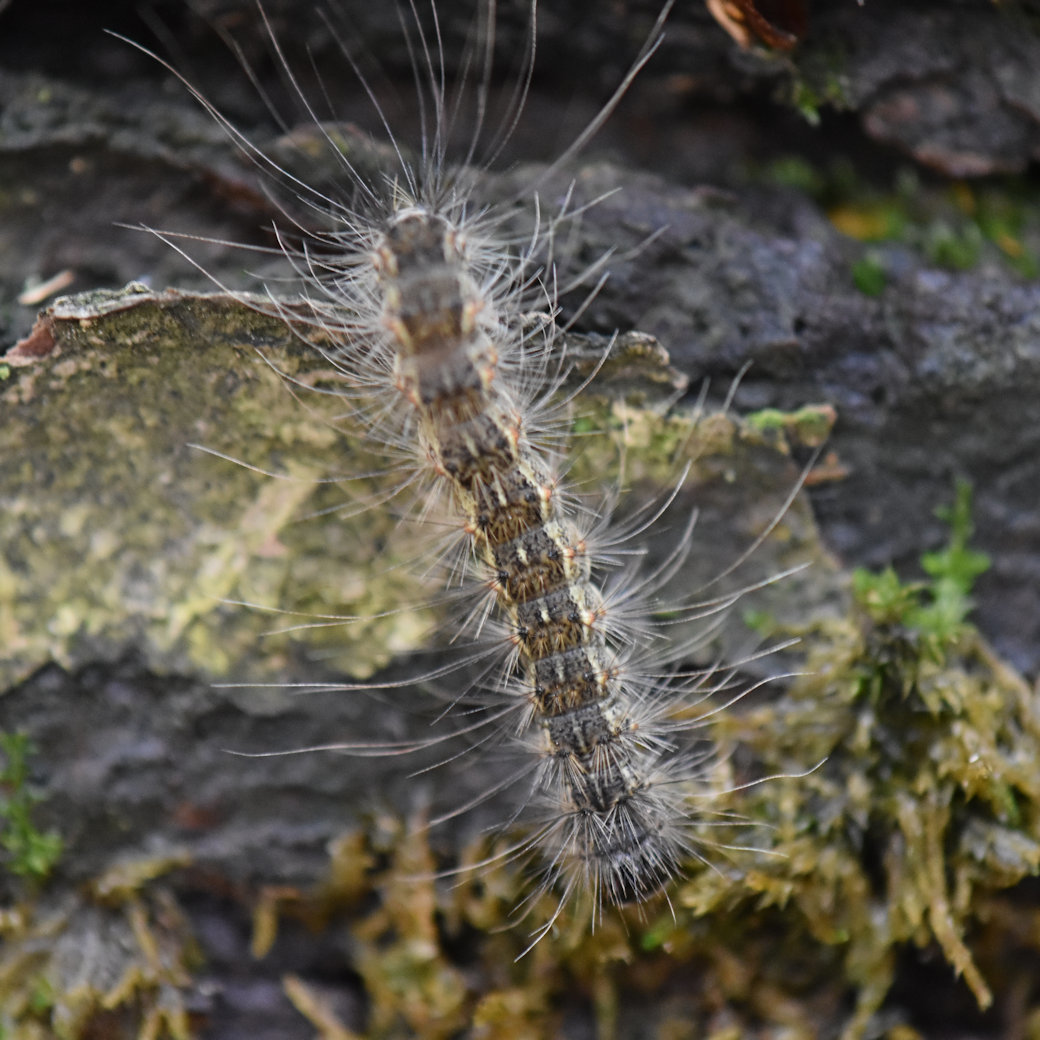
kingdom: Animalia
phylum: Arthropoda
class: Insecta
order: Lepidoptera
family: Erebidae
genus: Hyphantria
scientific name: Hyphantria cunea
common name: American white moth
